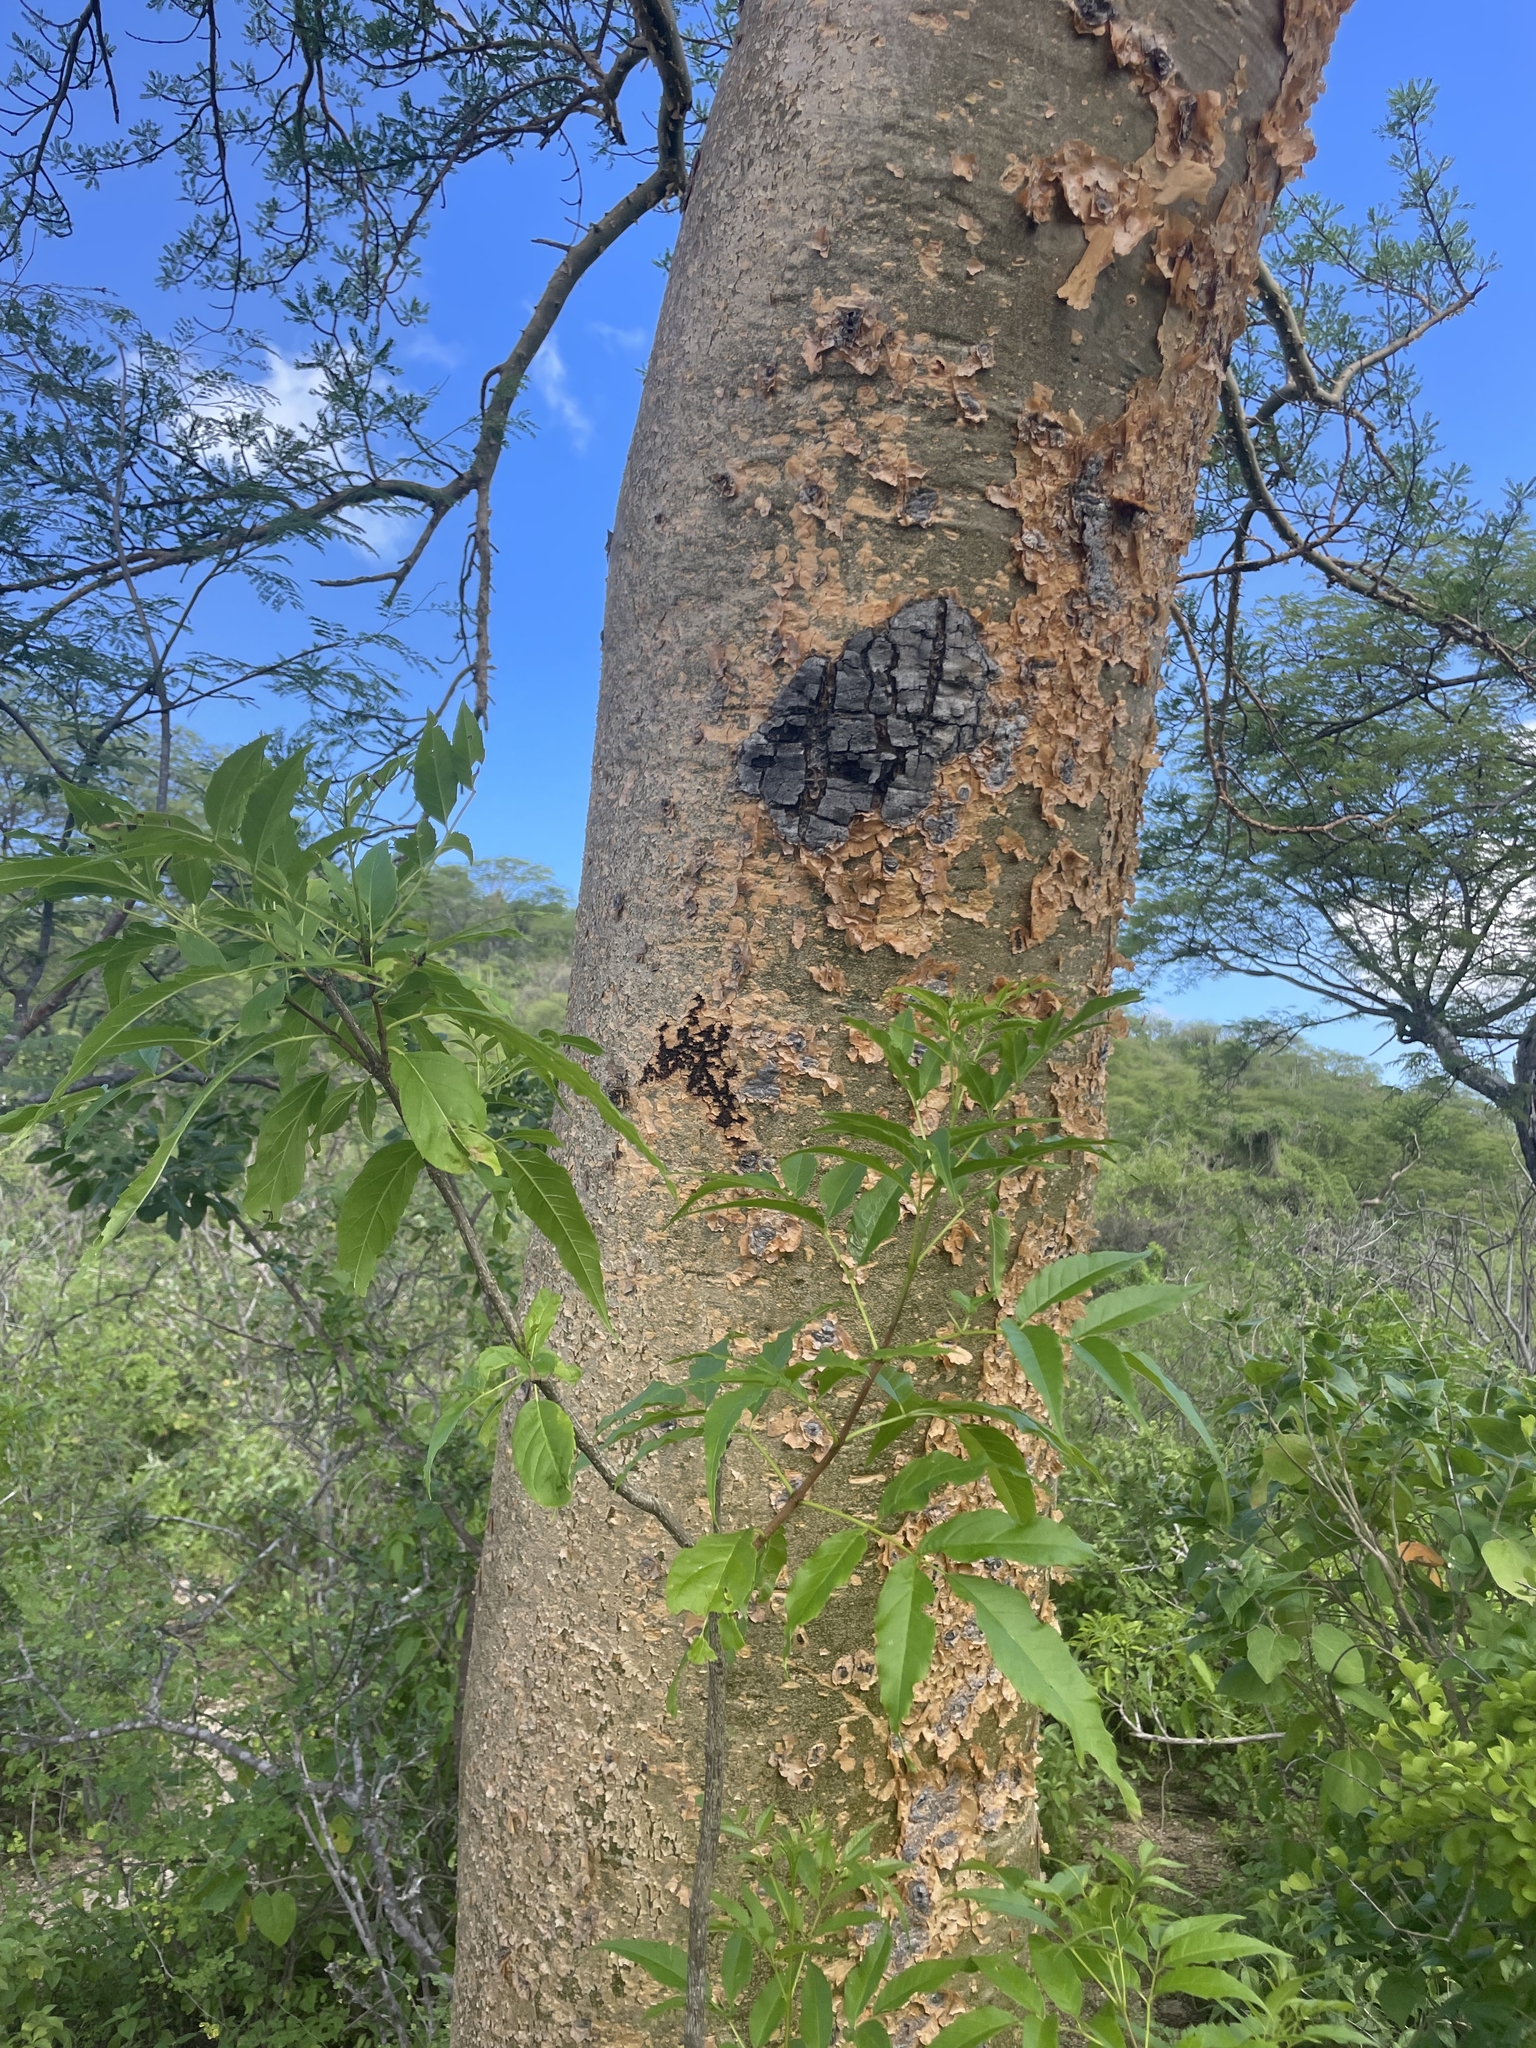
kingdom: Plantae
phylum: Tracheophyta
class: Magnoliopsida
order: Sapindales
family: Burseraceae
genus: Bursera
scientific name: Bursera microphylla
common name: Elephant tree
